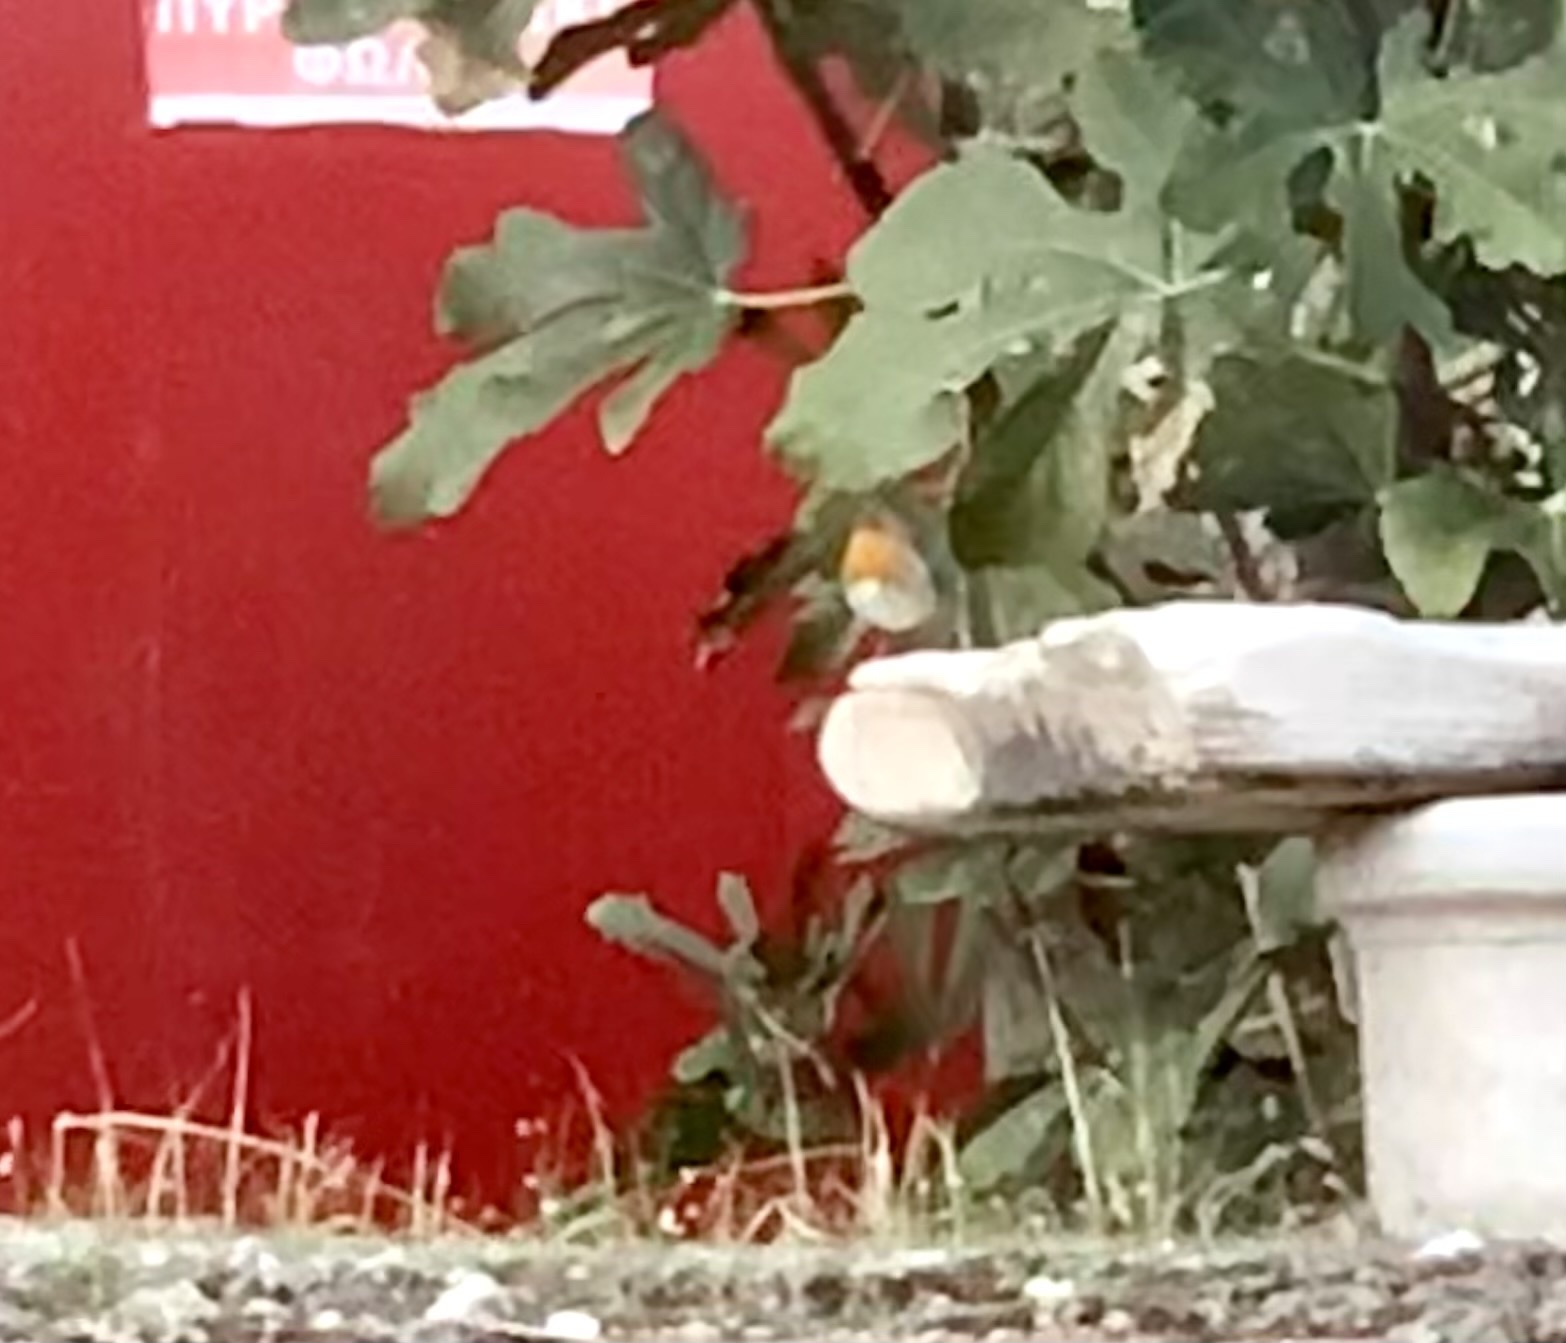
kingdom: Animalia
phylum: Chordata
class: Aves
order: Passeriformes
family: Muscicapidae
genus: Erithacus
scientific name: Erithacus rubecula
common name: European robin
